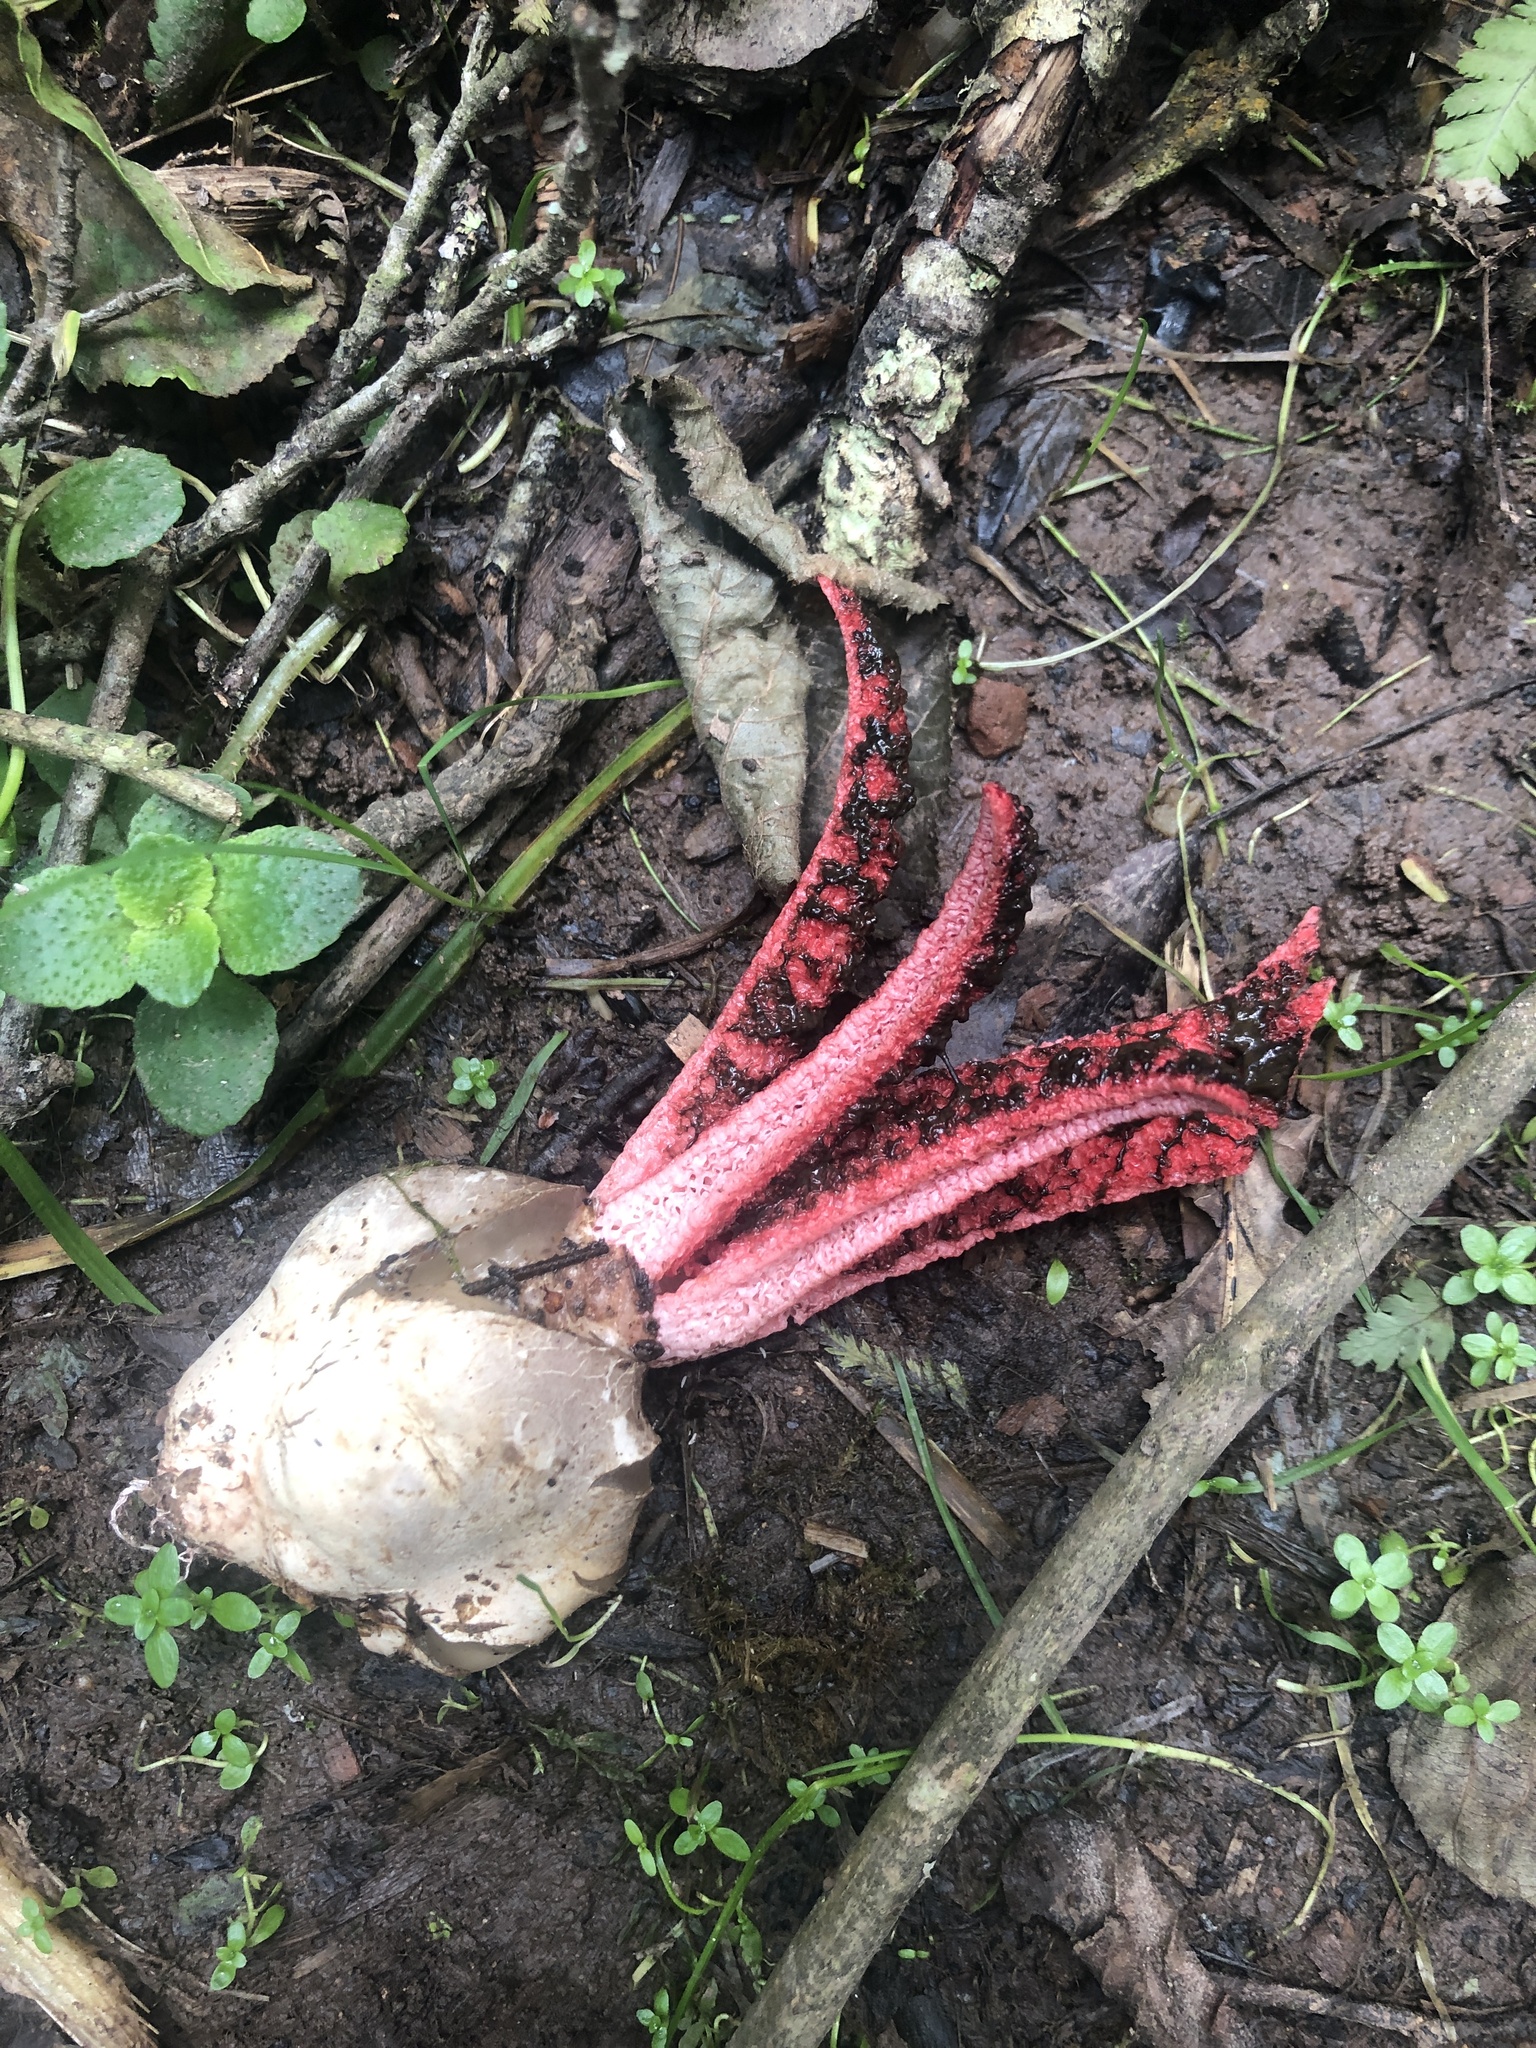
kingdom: Fungi
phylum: Basidiomycota
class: Agaricomycetes
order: Phallales
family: Phallaceae
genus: Clathrus
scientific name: Clathrus archeri
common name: Devil's fingers
